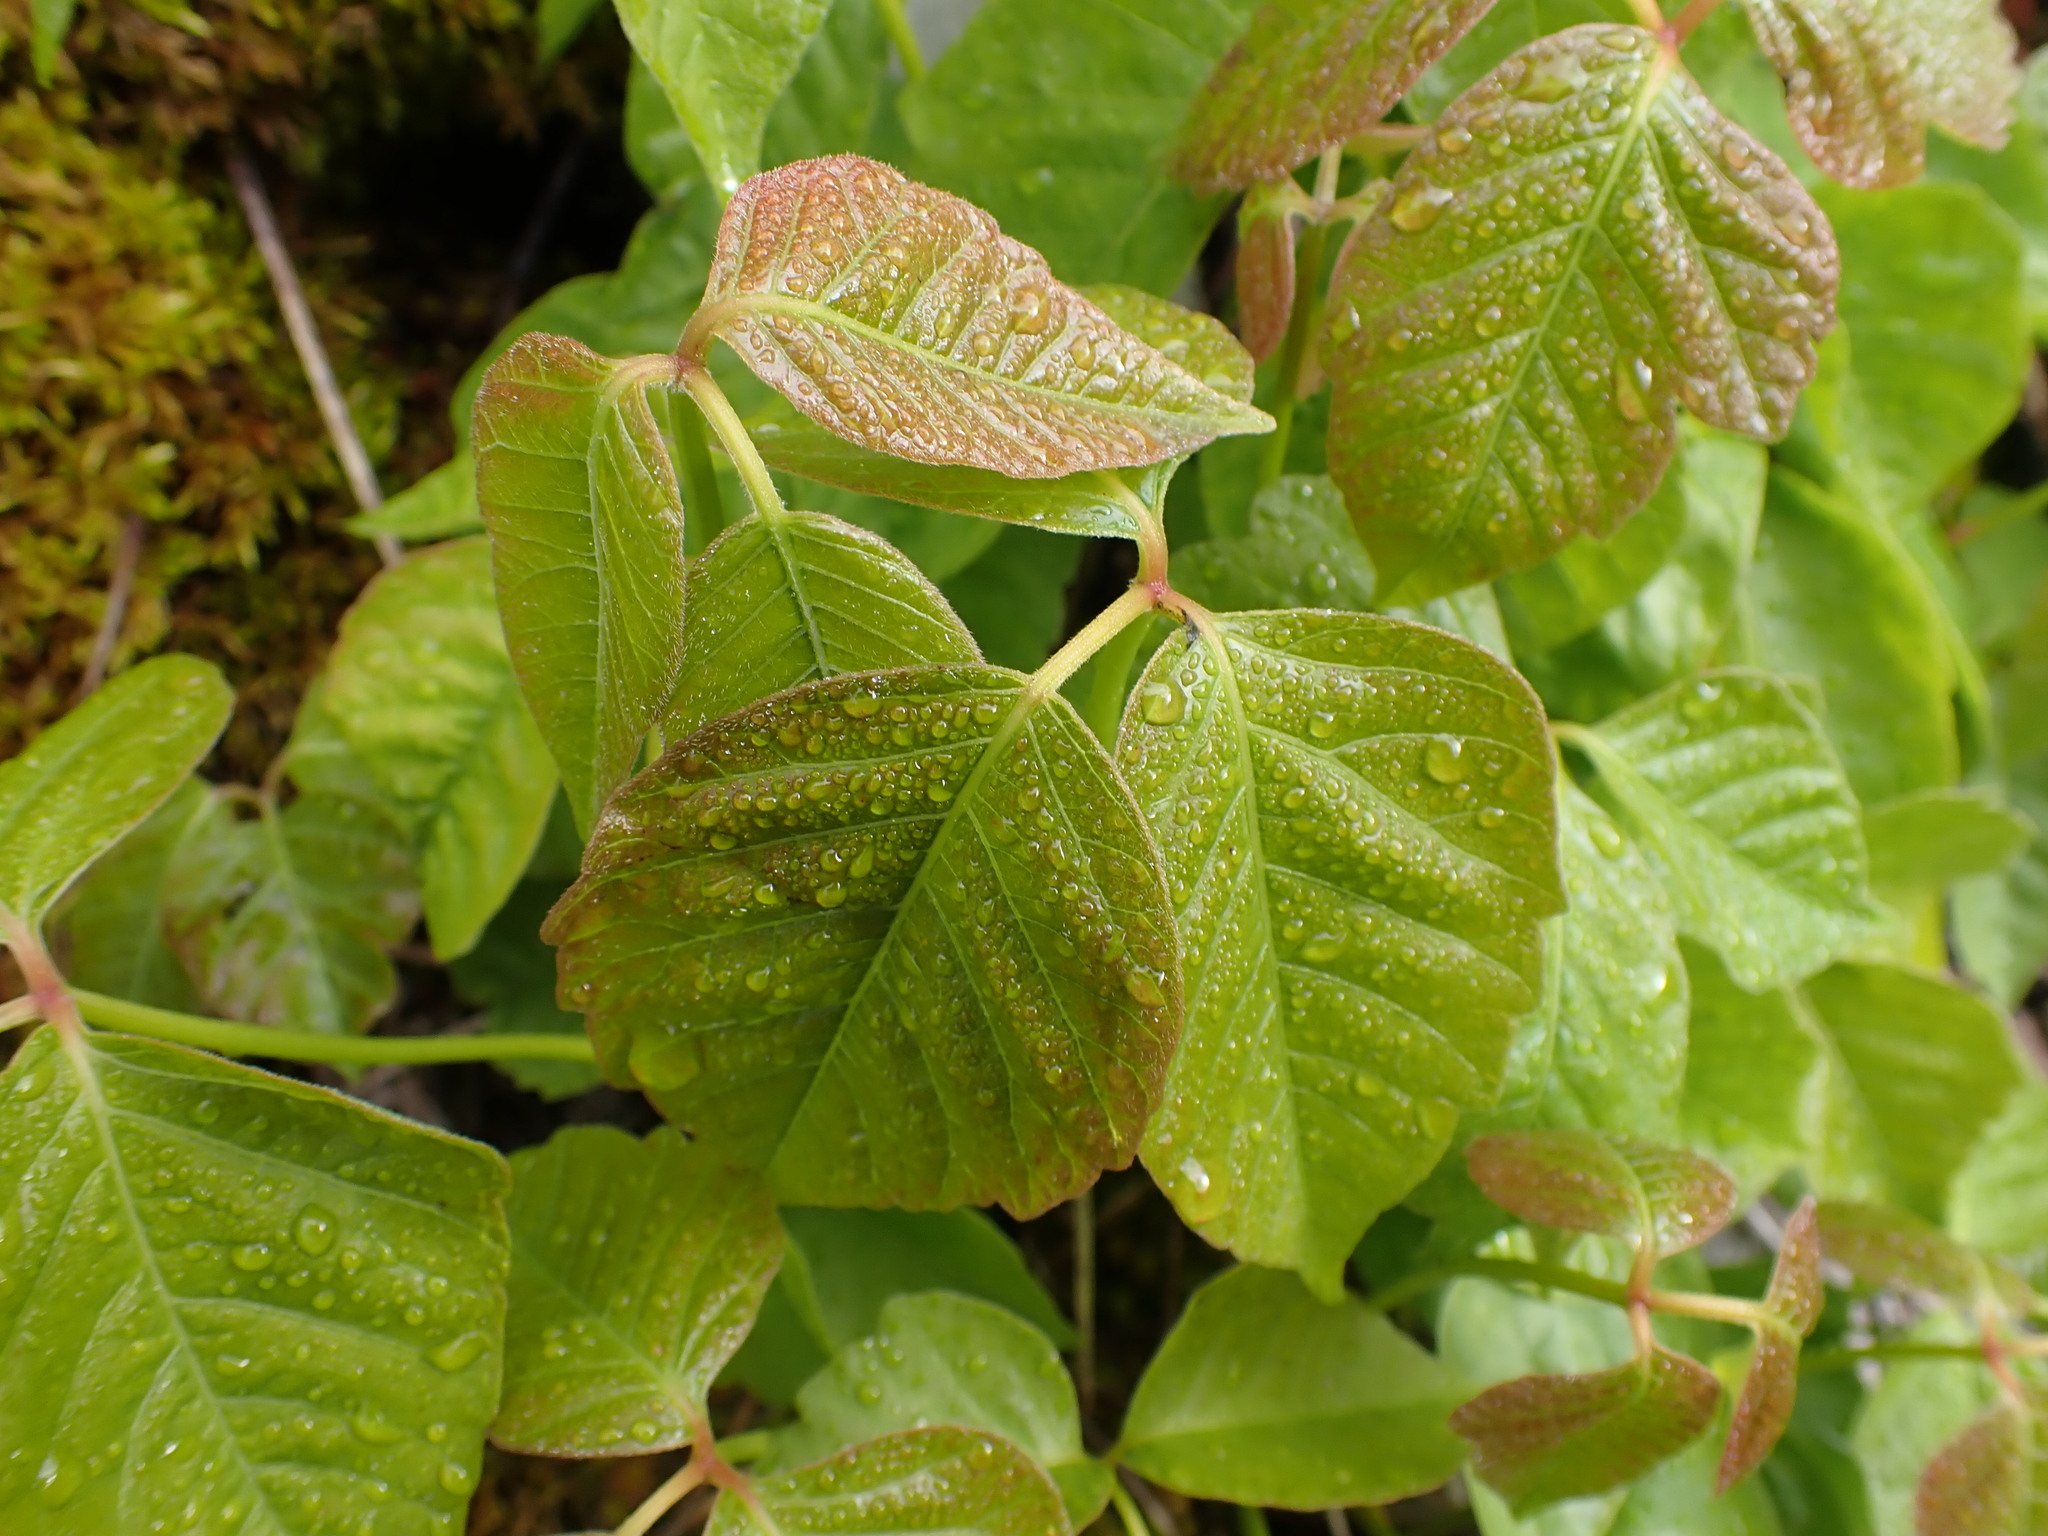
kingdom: Plantae
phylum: Tracheophyta
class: Magnoliopsida
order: Sapindales
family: Anacardiaceae
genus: Toxicodendron
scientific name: Toxicodendron rydbergii
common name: Rydberg's poison-ivy
